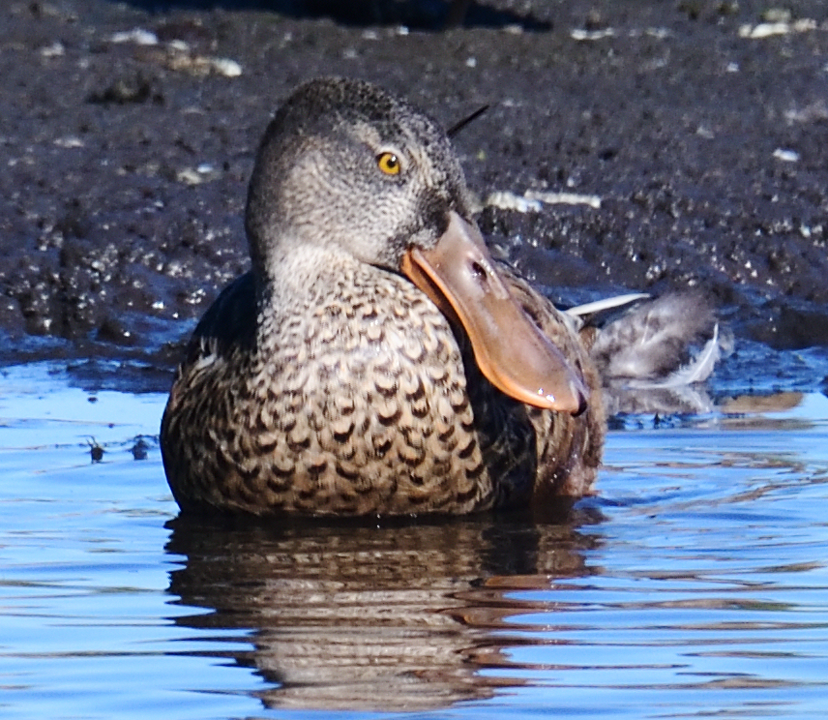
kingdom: Animalia
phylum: Chordata
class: Aves
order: Anseriformes
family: Anatidae
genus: Spatula
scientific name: Spatula clypeata
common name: Northern shoveler
